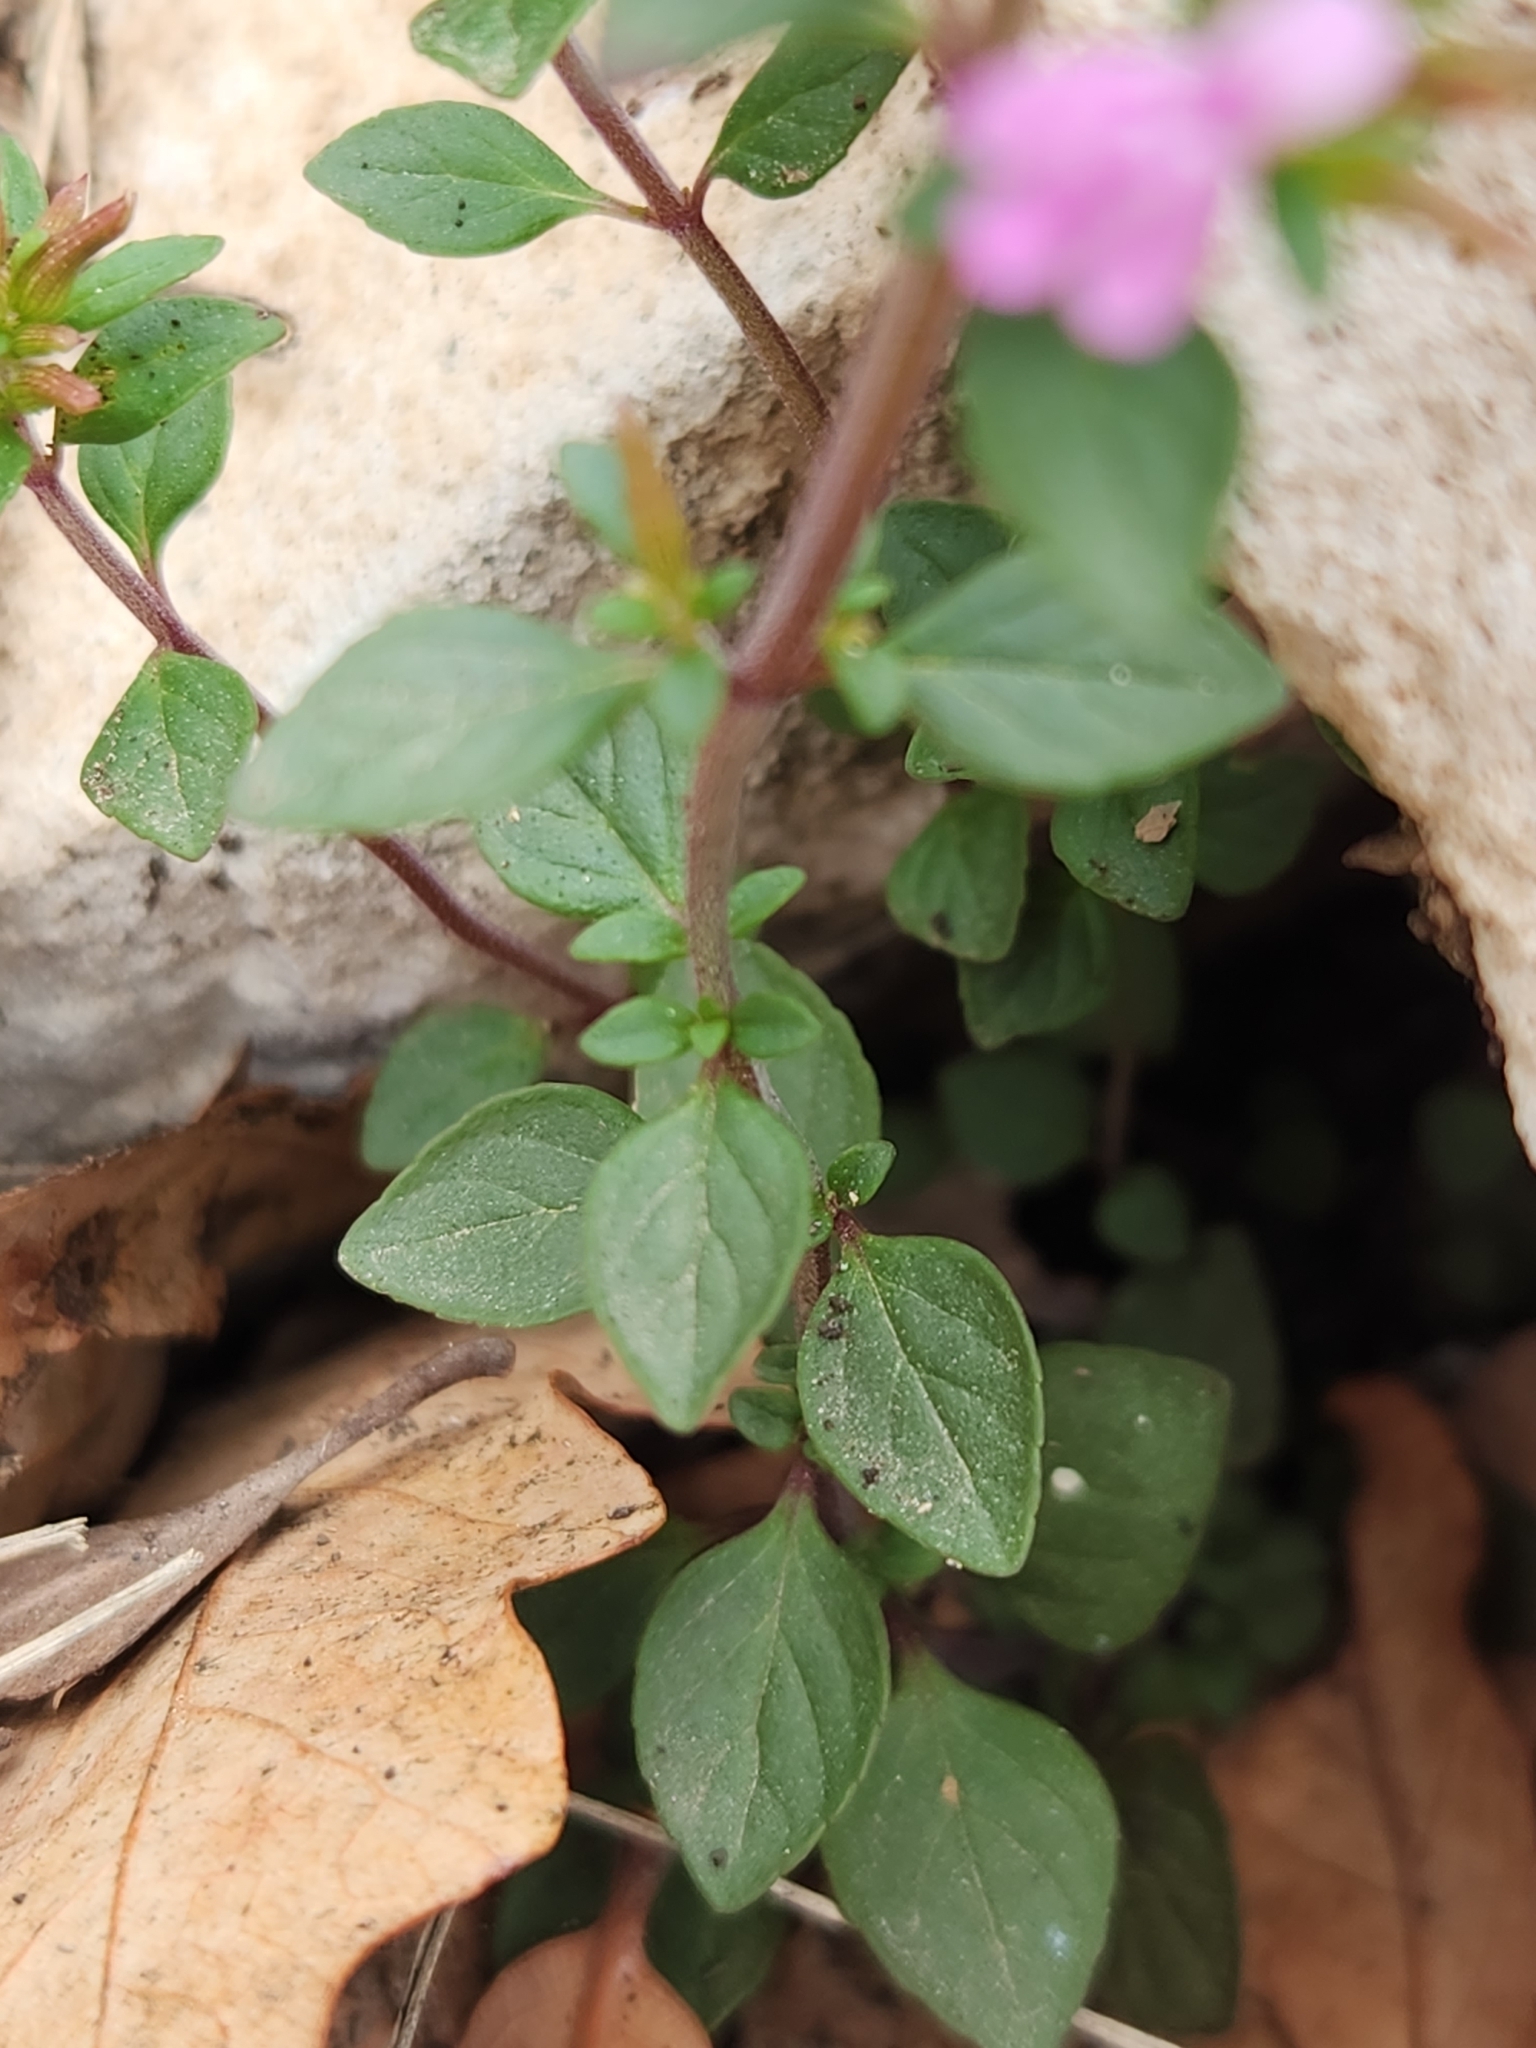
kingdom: Plantae
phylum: Tracheophyta
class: Magnoliopsida
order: Lamiales
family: Lamiaceae
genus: Hedeoma
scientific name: Hedeoma acinoides
